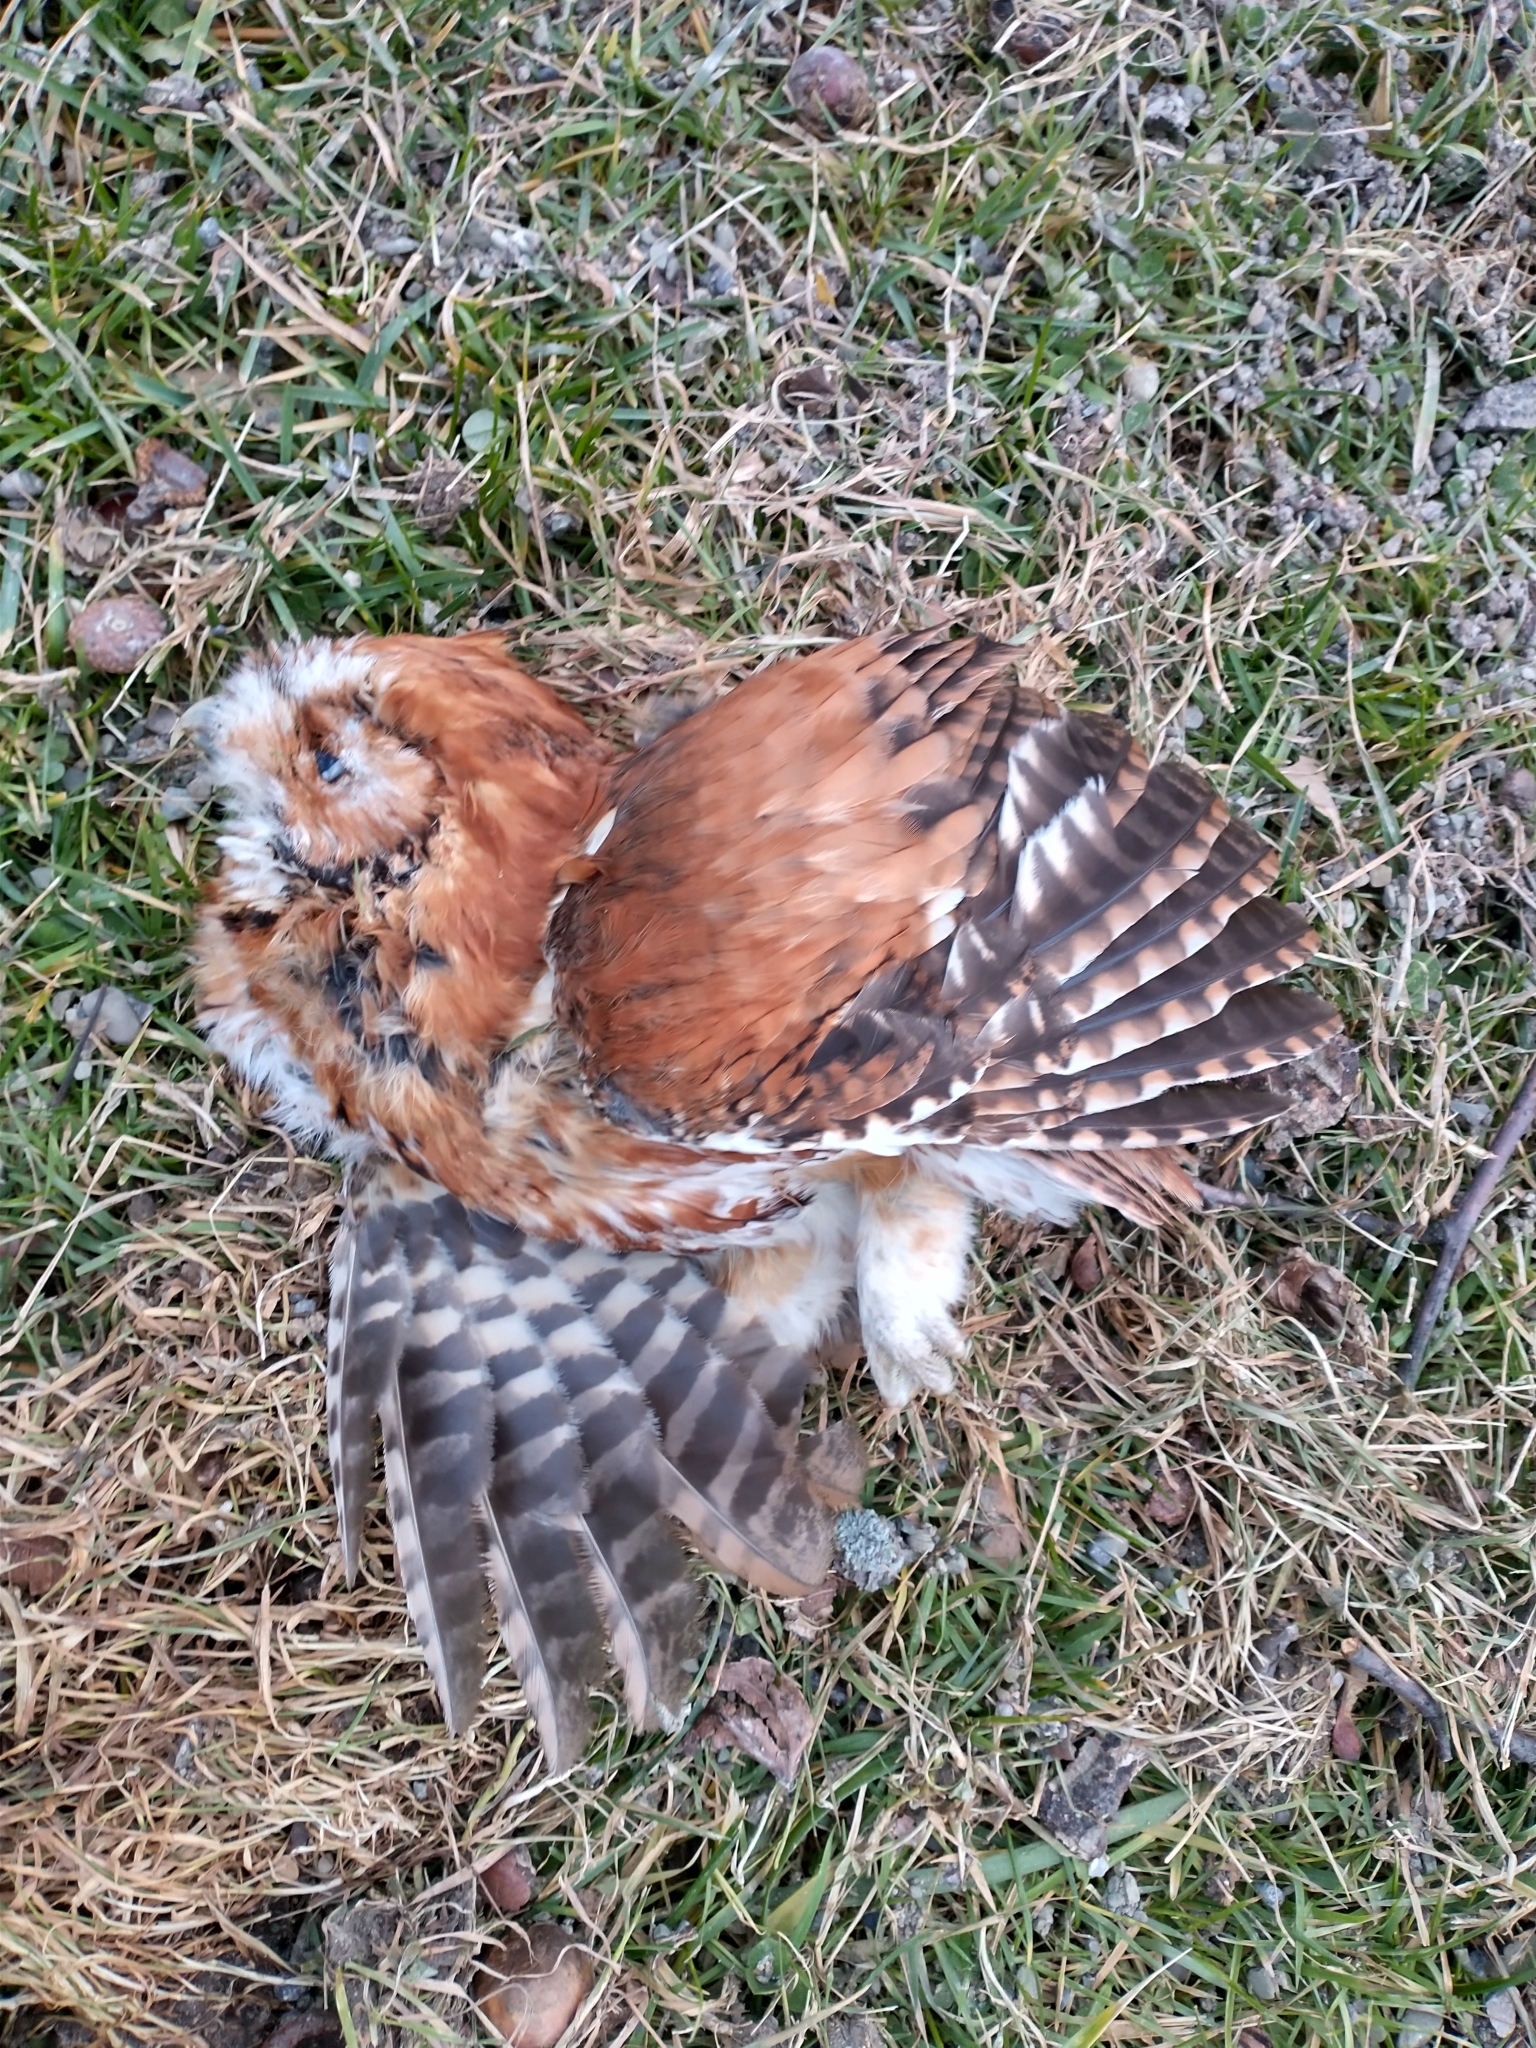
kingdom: Animalia
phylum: Chordata
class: Aves
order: Strigiformes
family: Strigidae
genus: Megascops
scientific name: Megascops asio
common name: Eastern screech-owl
